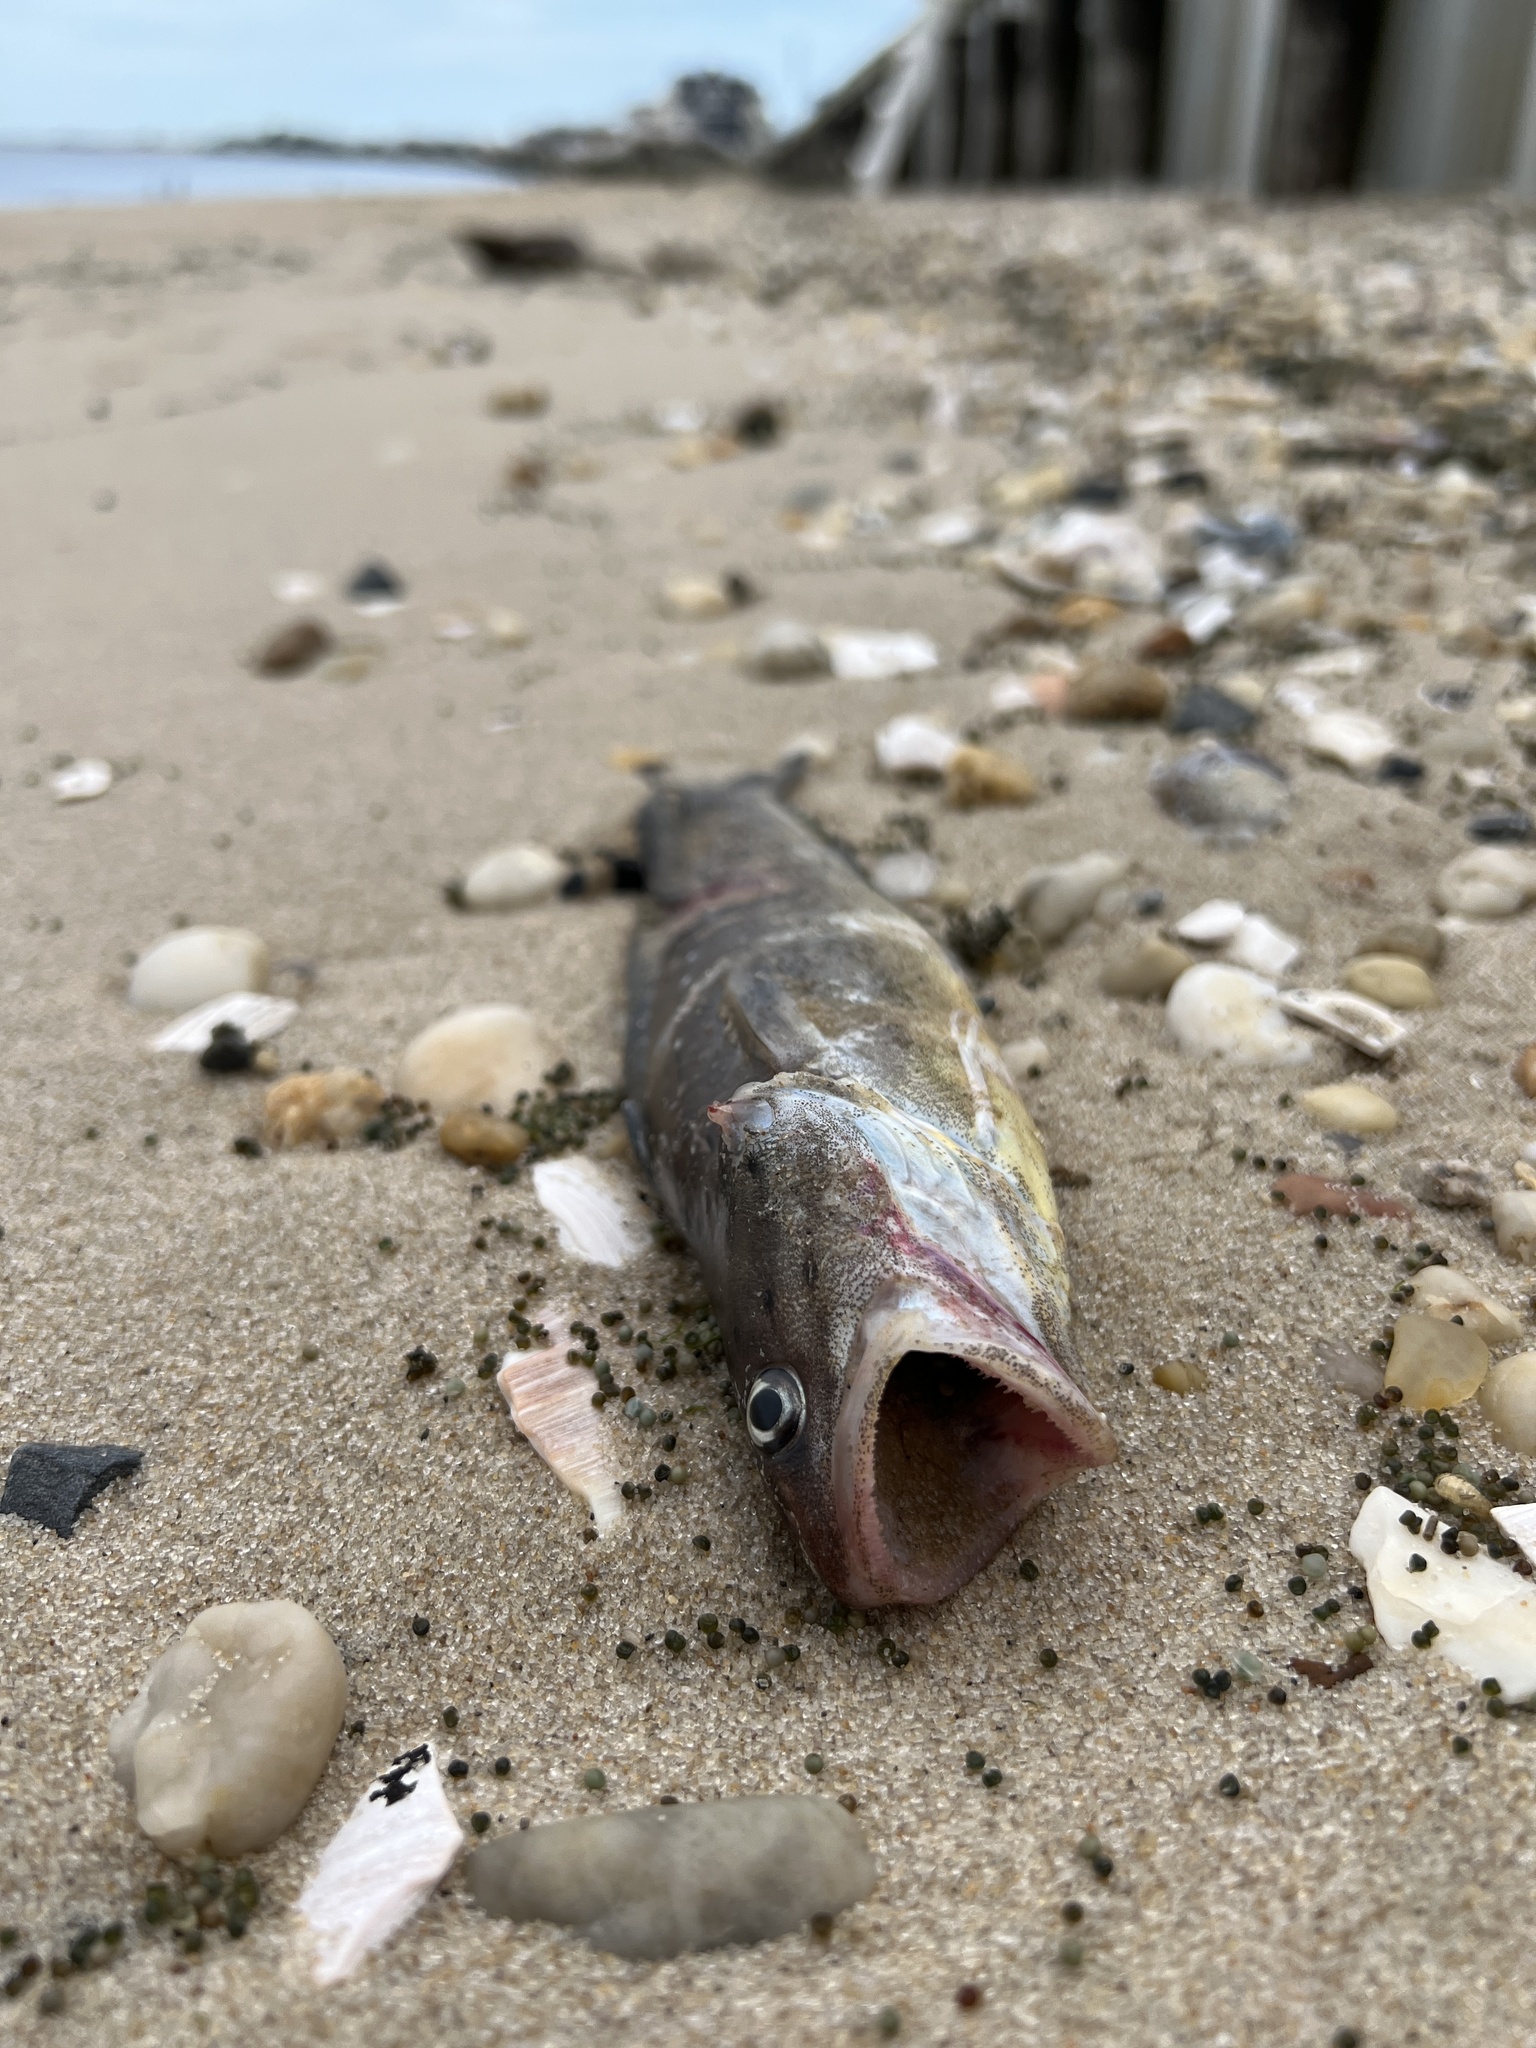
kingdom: Animalia
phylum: Chordata
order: Gadiformes
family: Phycidae
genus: Urophycis
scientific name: Urophycis regia
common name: Spotted codling
